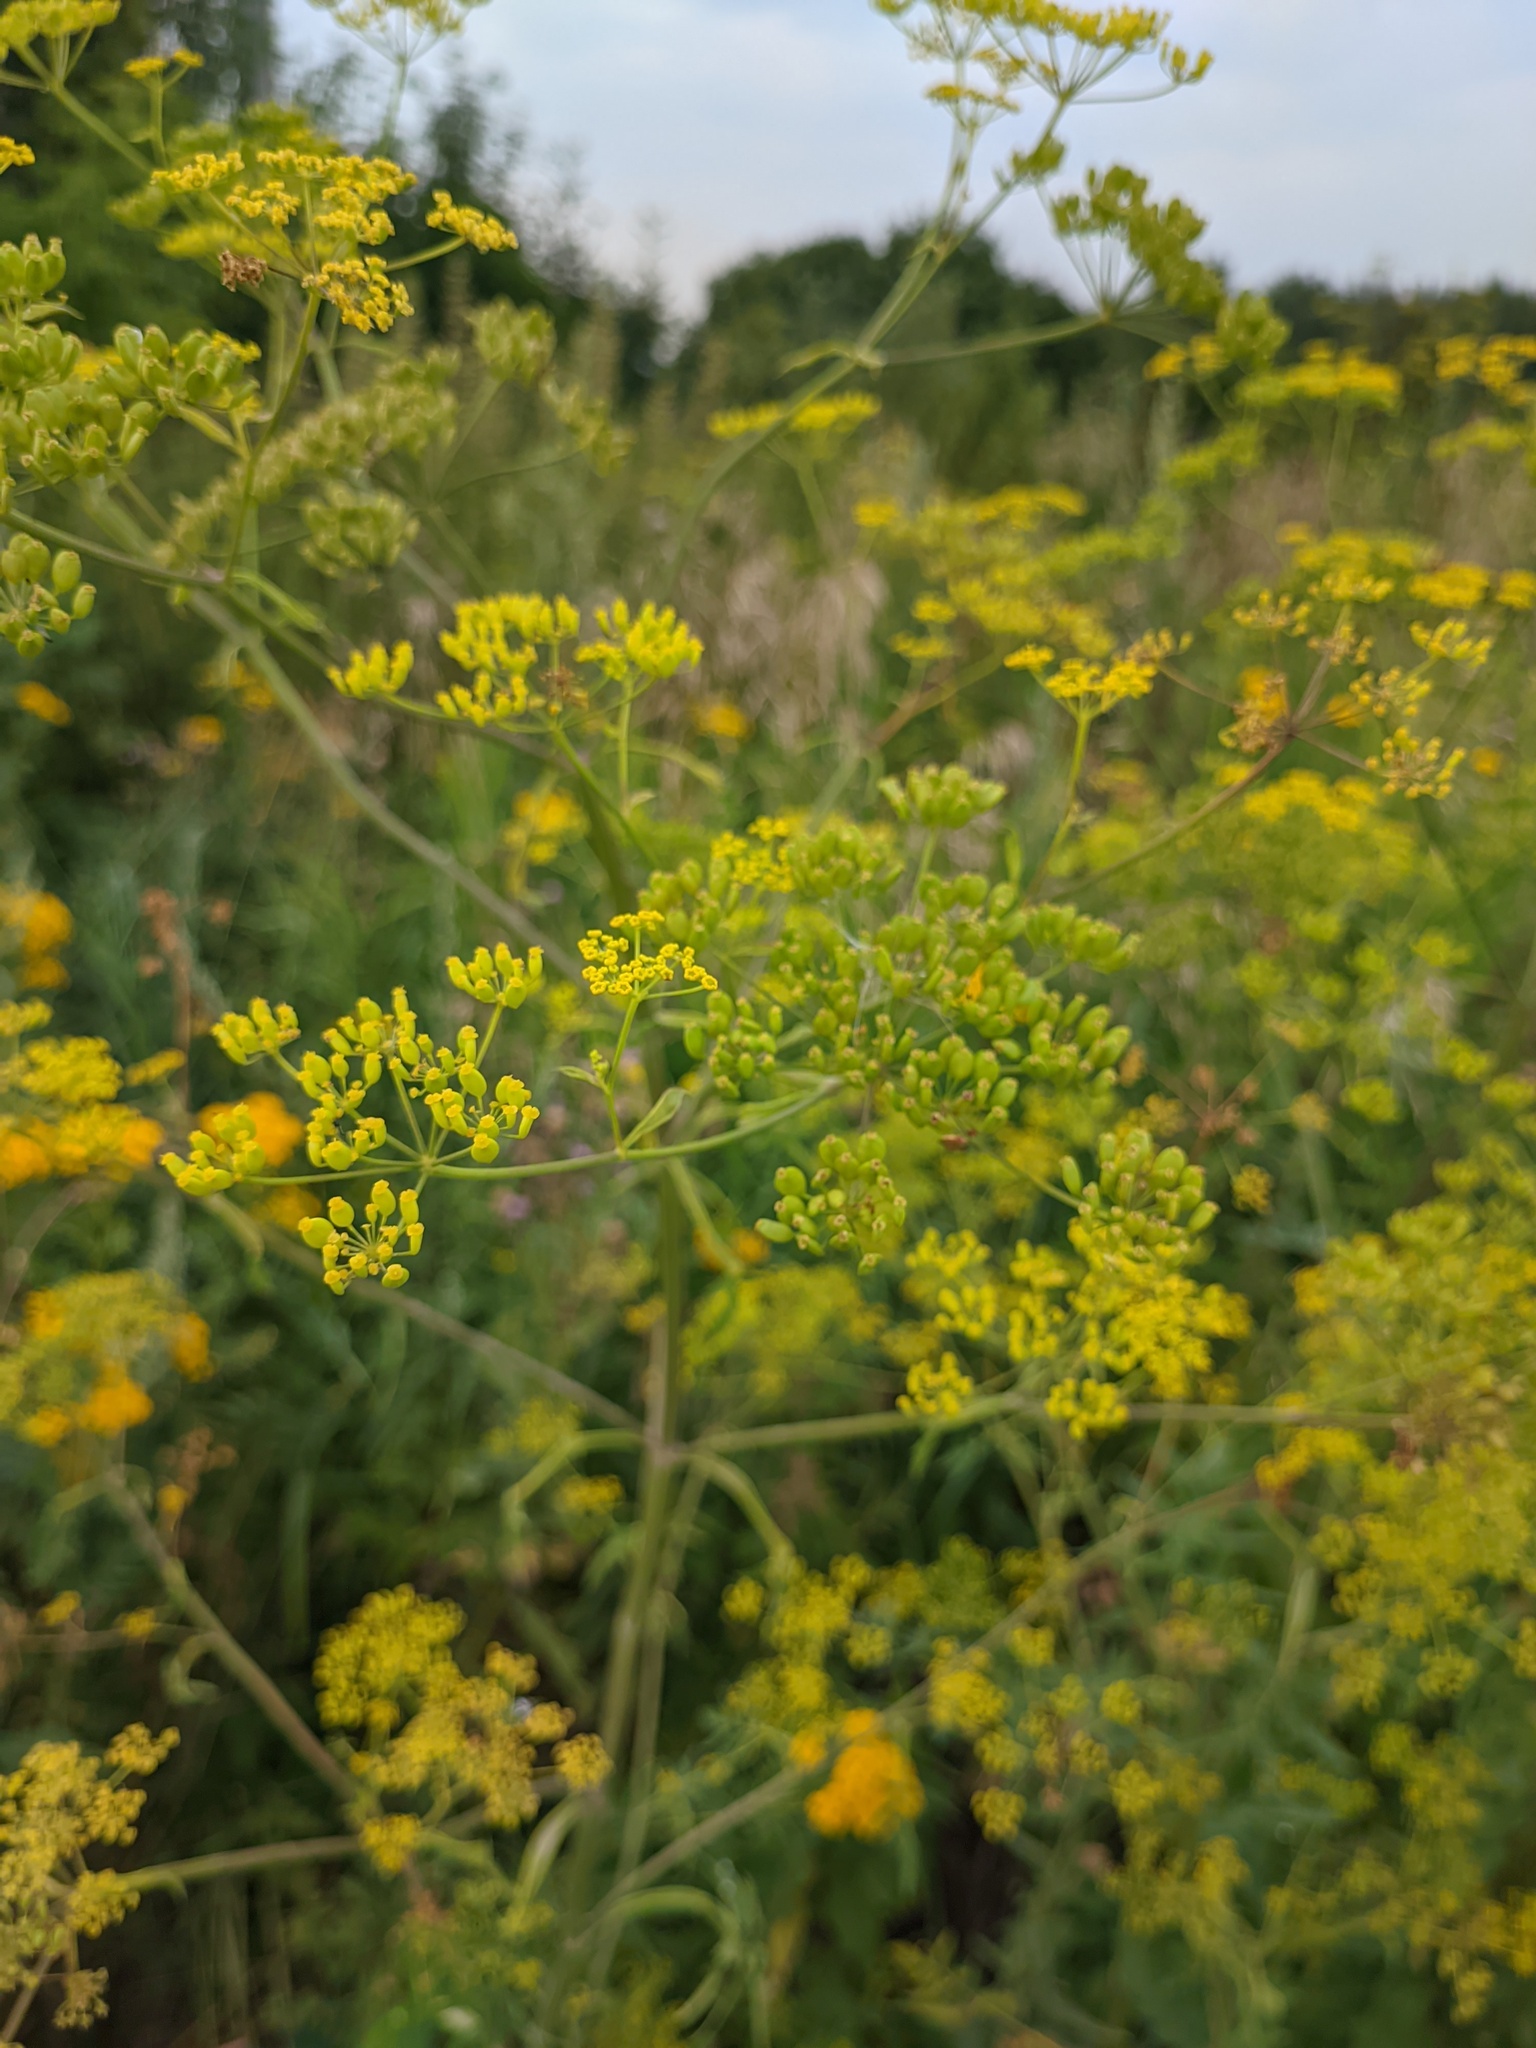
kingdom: Plantae
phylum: Tracheophyta
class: Magnoliopsida
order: Apiales
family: Apiaceae
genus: Pastinaca
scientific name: Pastinaca sativa
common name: Wild parsnip
